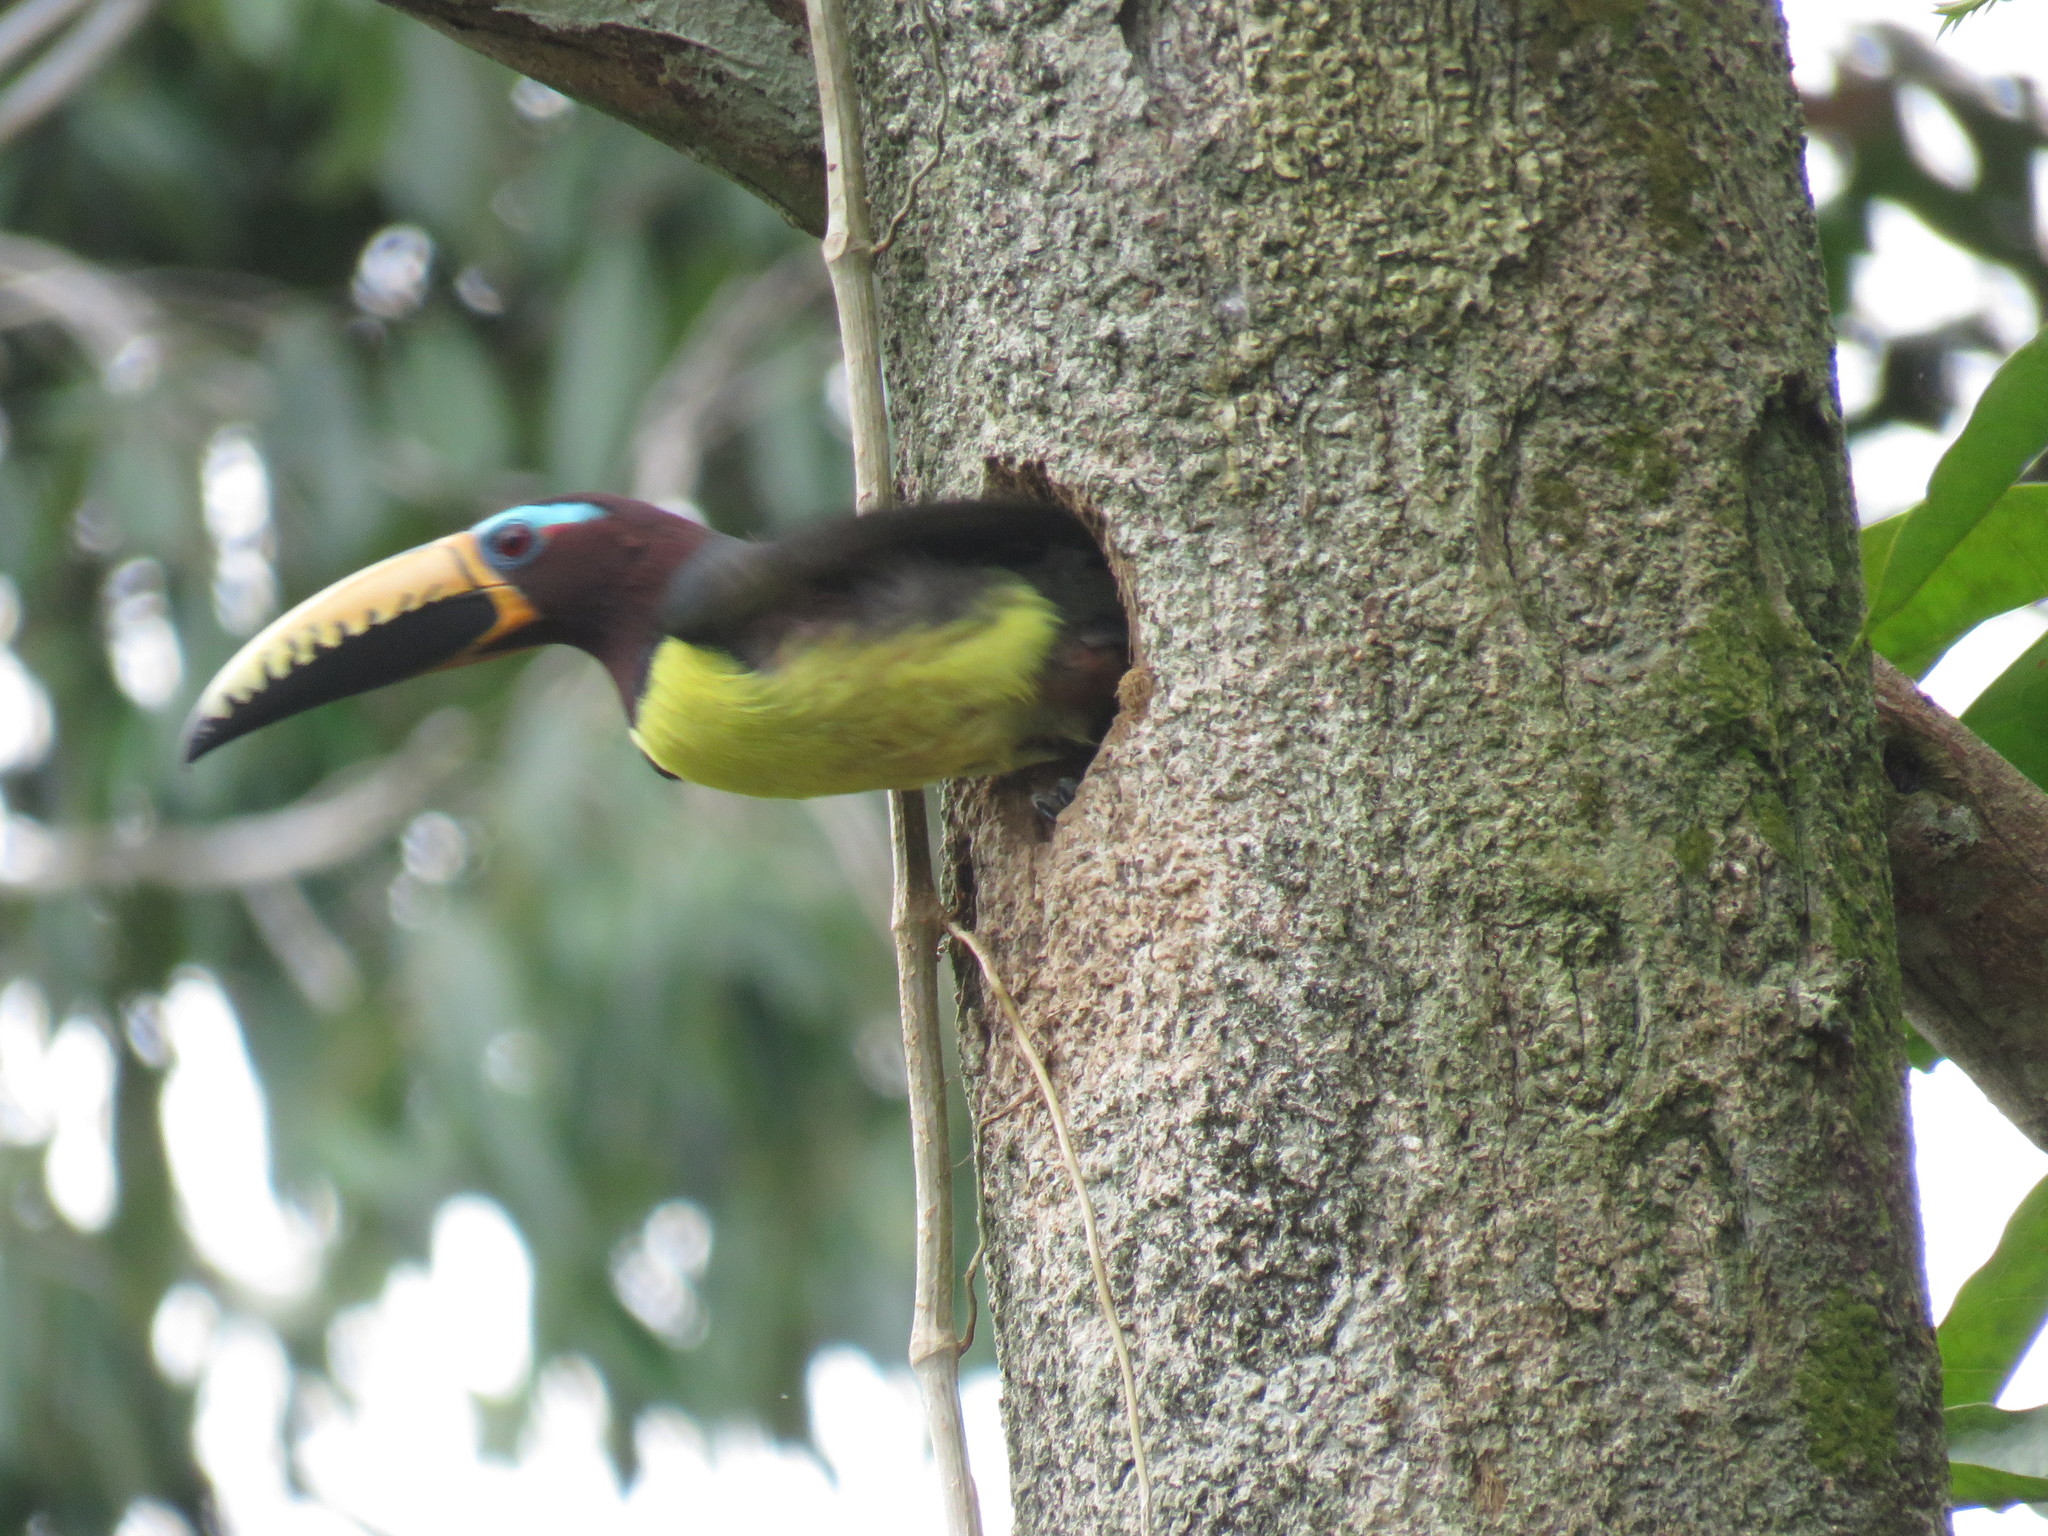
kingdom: Animalia
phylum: Chordata
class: Aves
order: Piciformes
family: Ramphastidae
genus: Pteroglossus
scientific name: Pteroglossus inscriptus
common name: Lettered aracari
